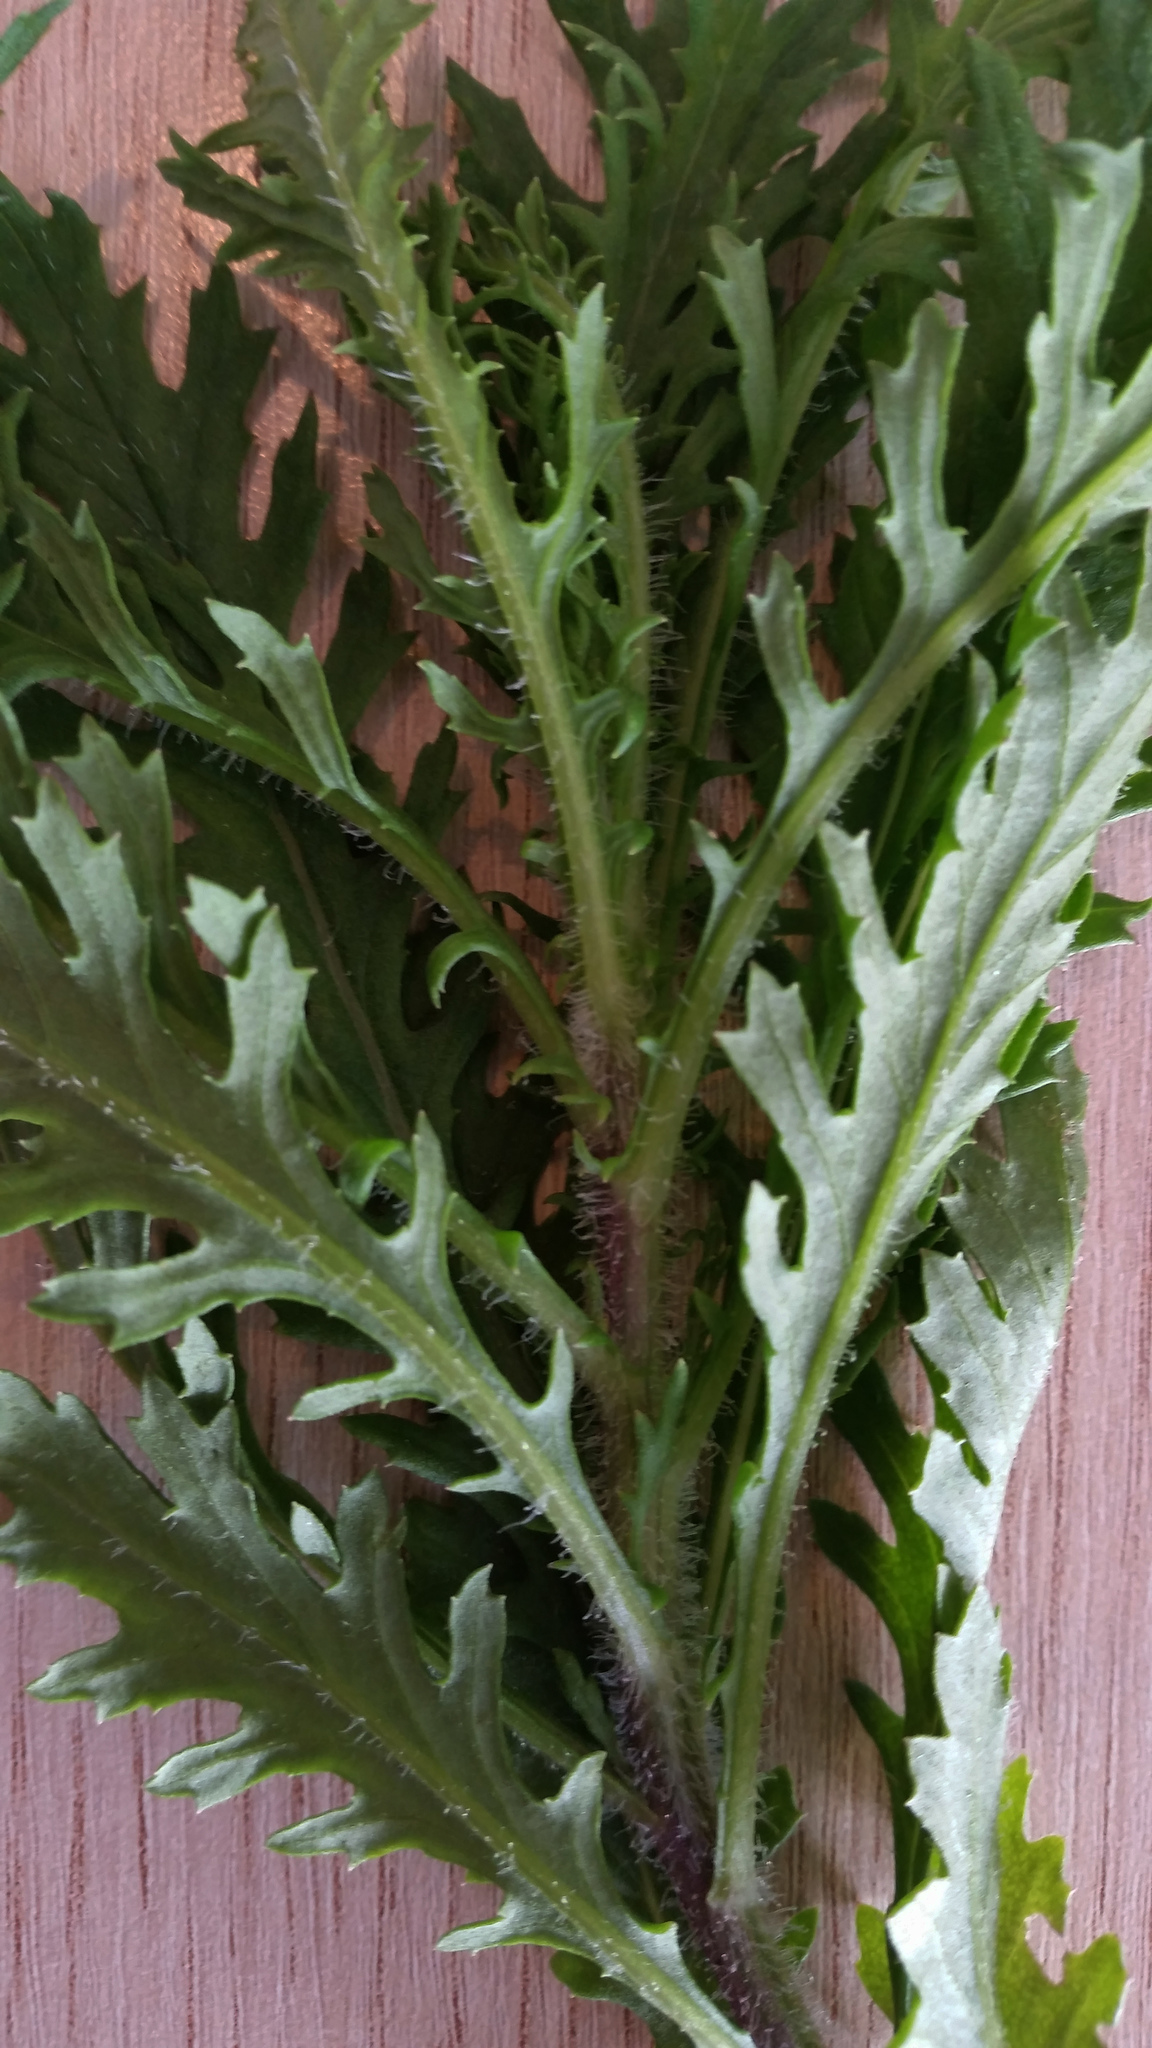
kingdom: Plantae
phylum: Tracheophyta
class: Magnoliopsida
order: Asterales
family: Asteraceae
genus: Senecio
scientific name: Senecio esleri
